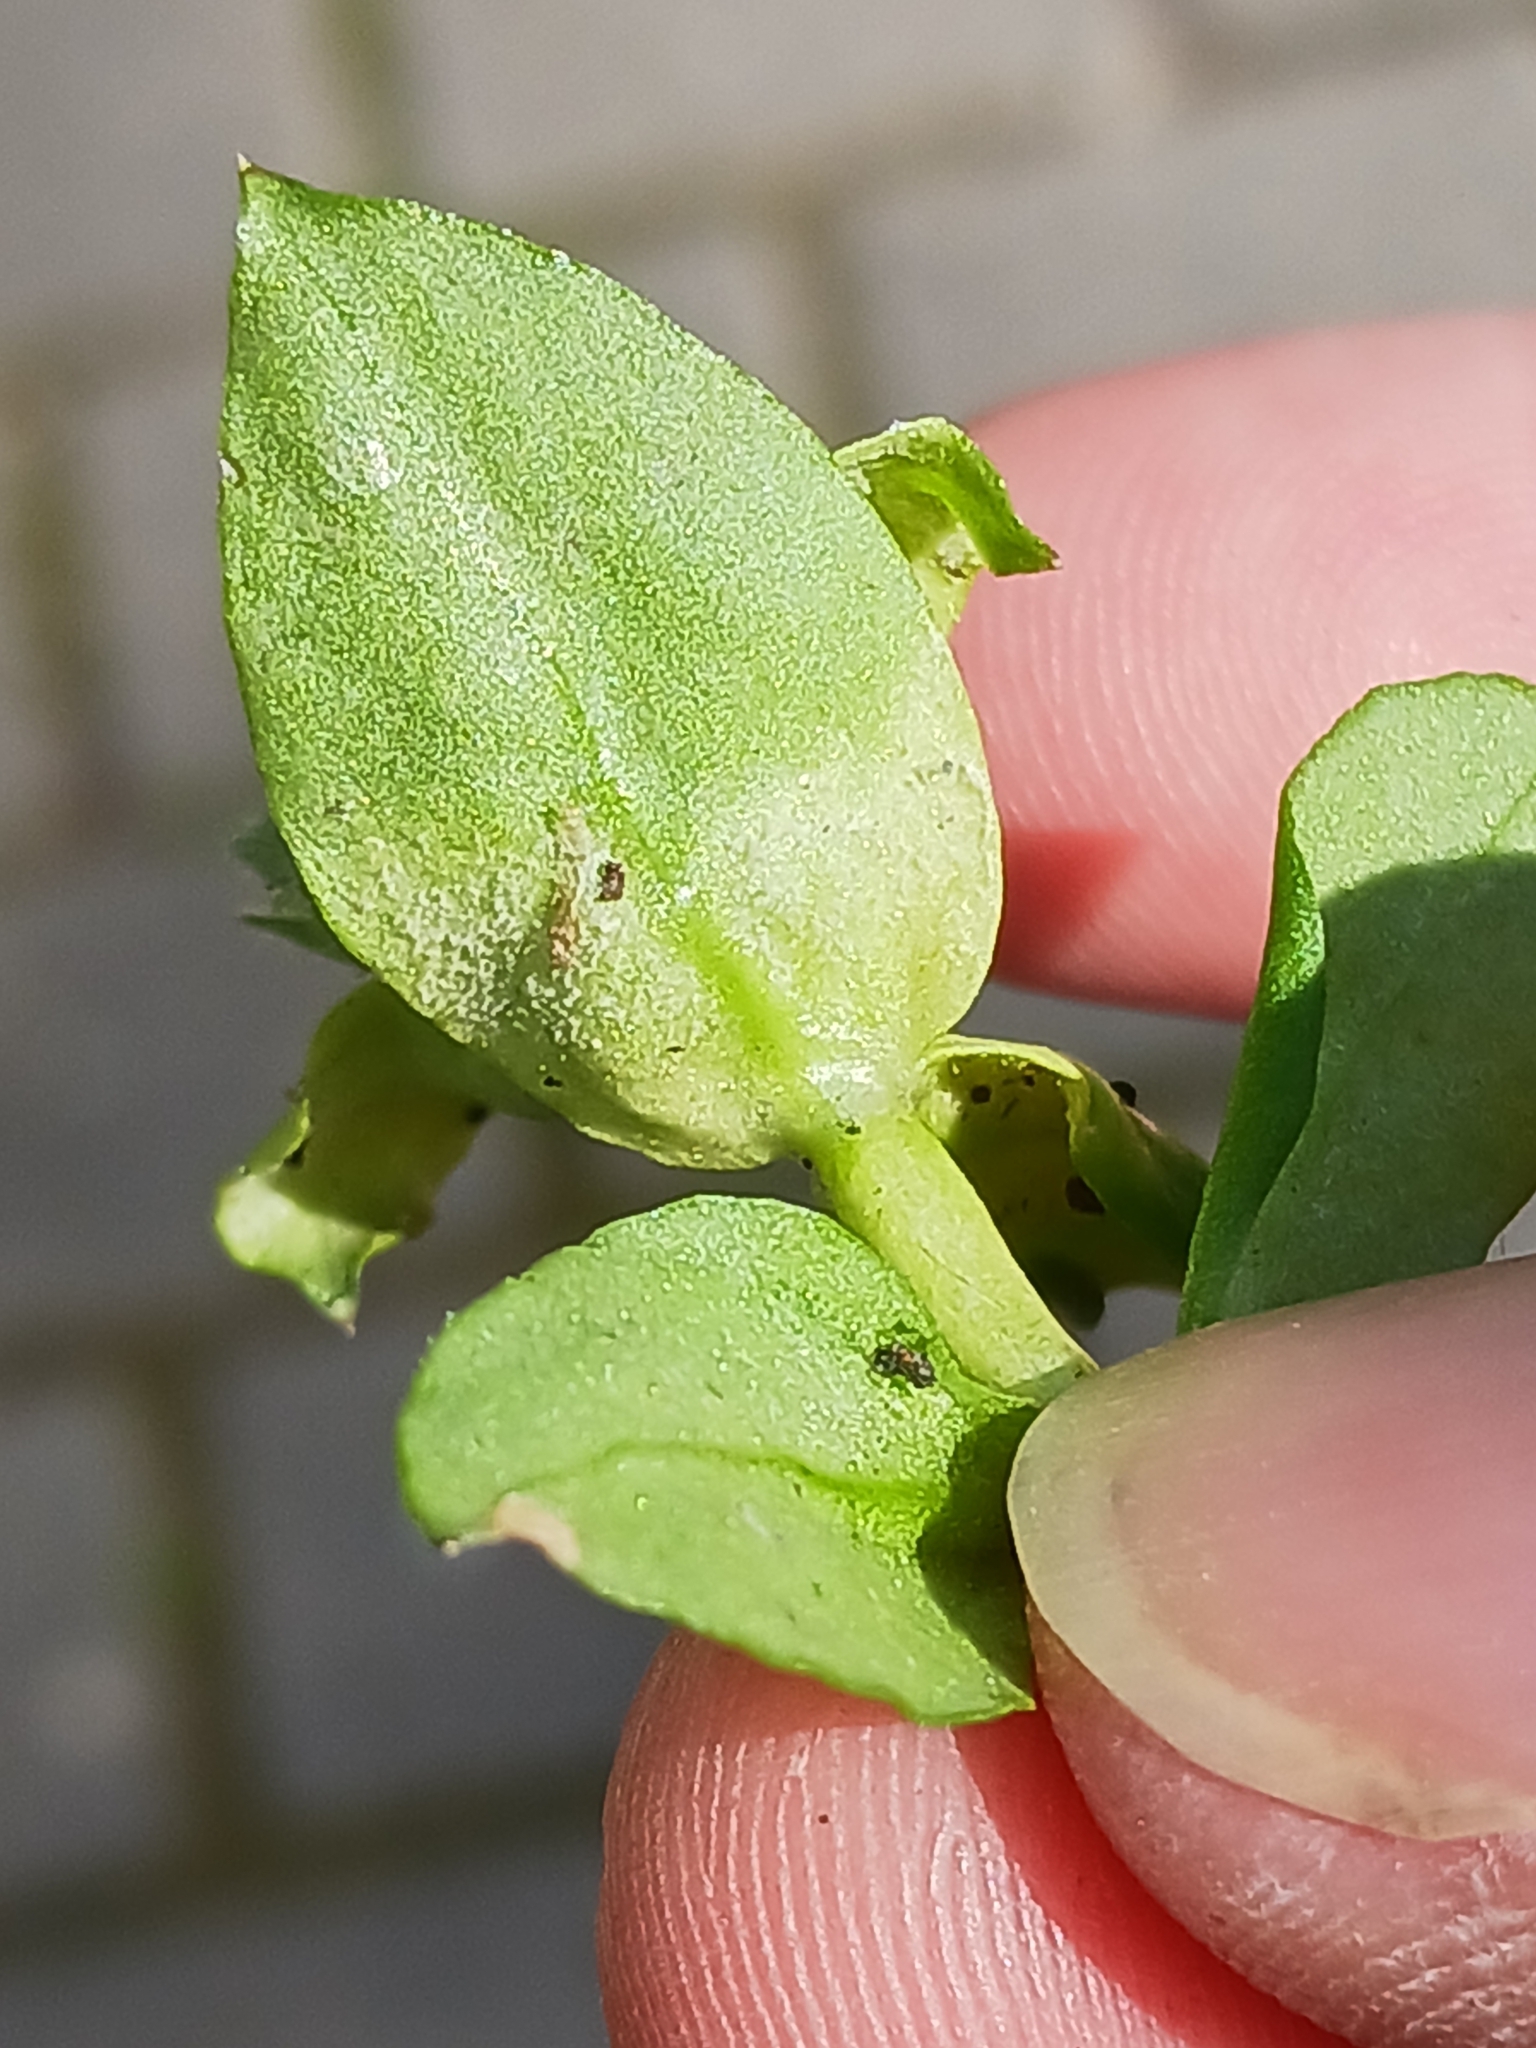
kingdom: Chromista
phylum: Oomycota
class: Peronosporea
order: Peronosporales
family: Peronosporaceae
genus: Peronospora
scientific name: Peronospora alsinearum
